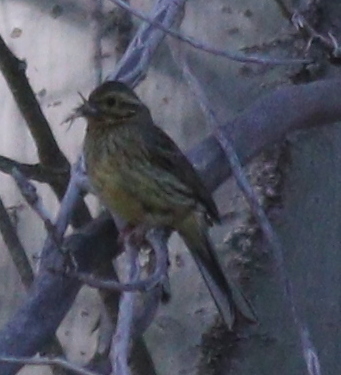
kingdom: Animalia
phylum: Chordata
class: Aves
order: Passeriformes
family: Emberizidae
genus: Emberiza
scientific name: Emberiza cirlus
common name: Cirl bunting
